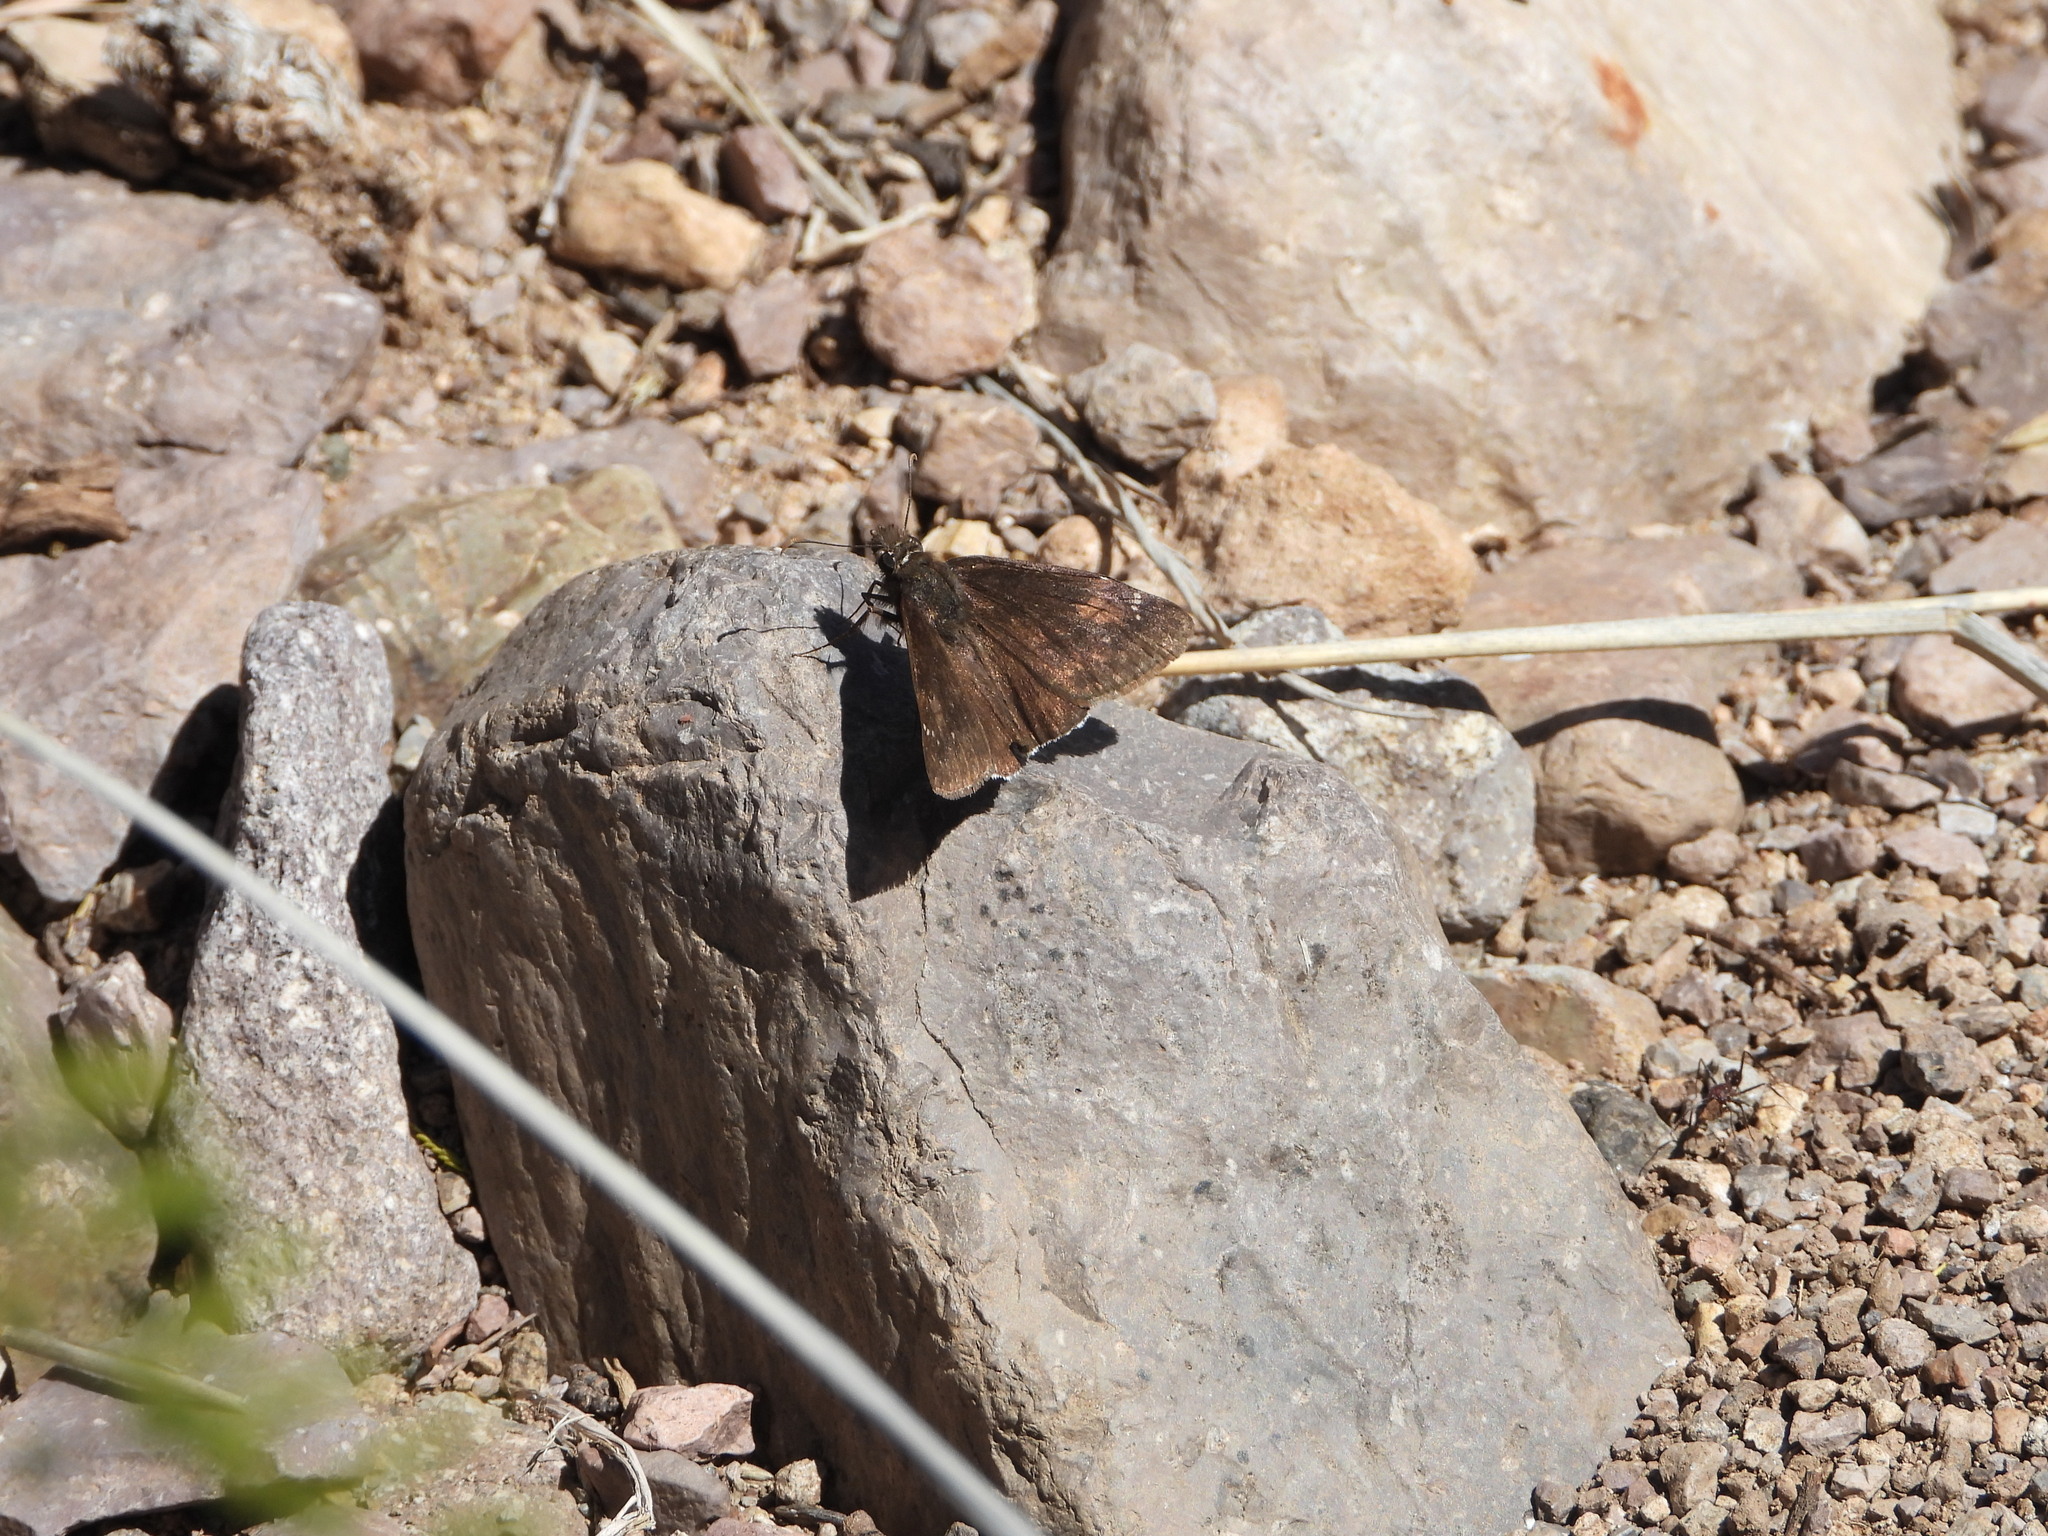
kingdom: Animalia
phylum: Arthropoda
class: Insecta
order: Lepidoptera
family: Hesperiidae
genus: Erynnis
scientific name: Erynnis funeralis
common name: Funereal duskywing
